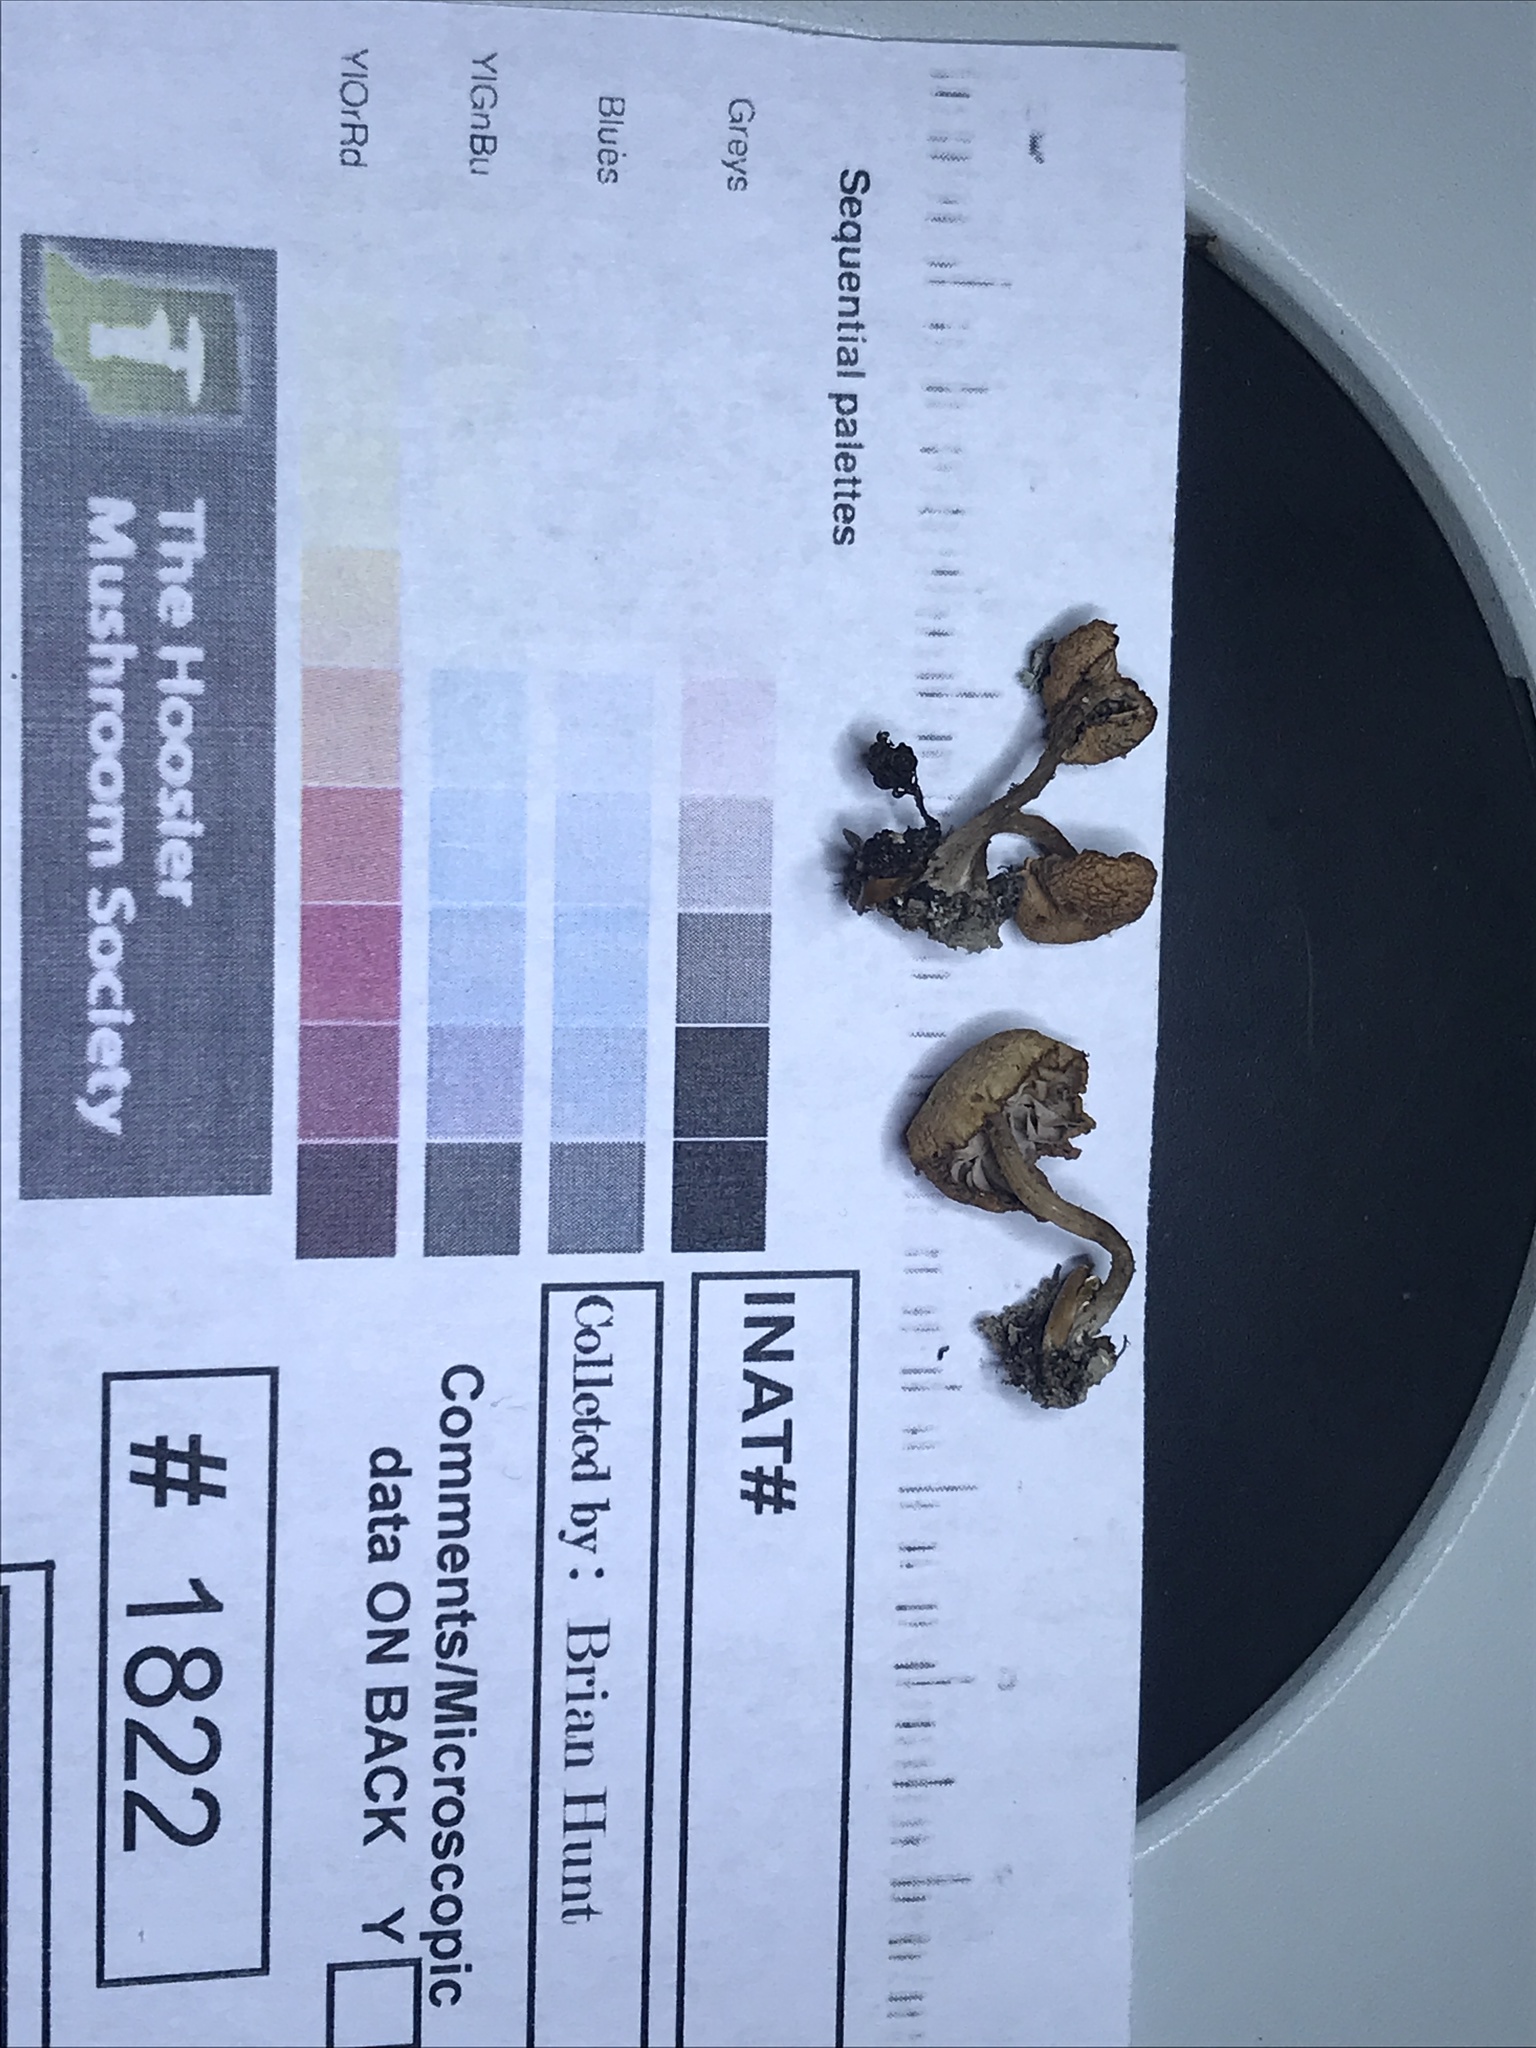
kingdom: Fungi
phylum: Basidiomycota
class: Agaricomycetes
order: Agaricales
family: Hydnangiaceae
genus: Laccaria
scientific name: Laccaria bicolor
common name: Bicoloured deceiver
